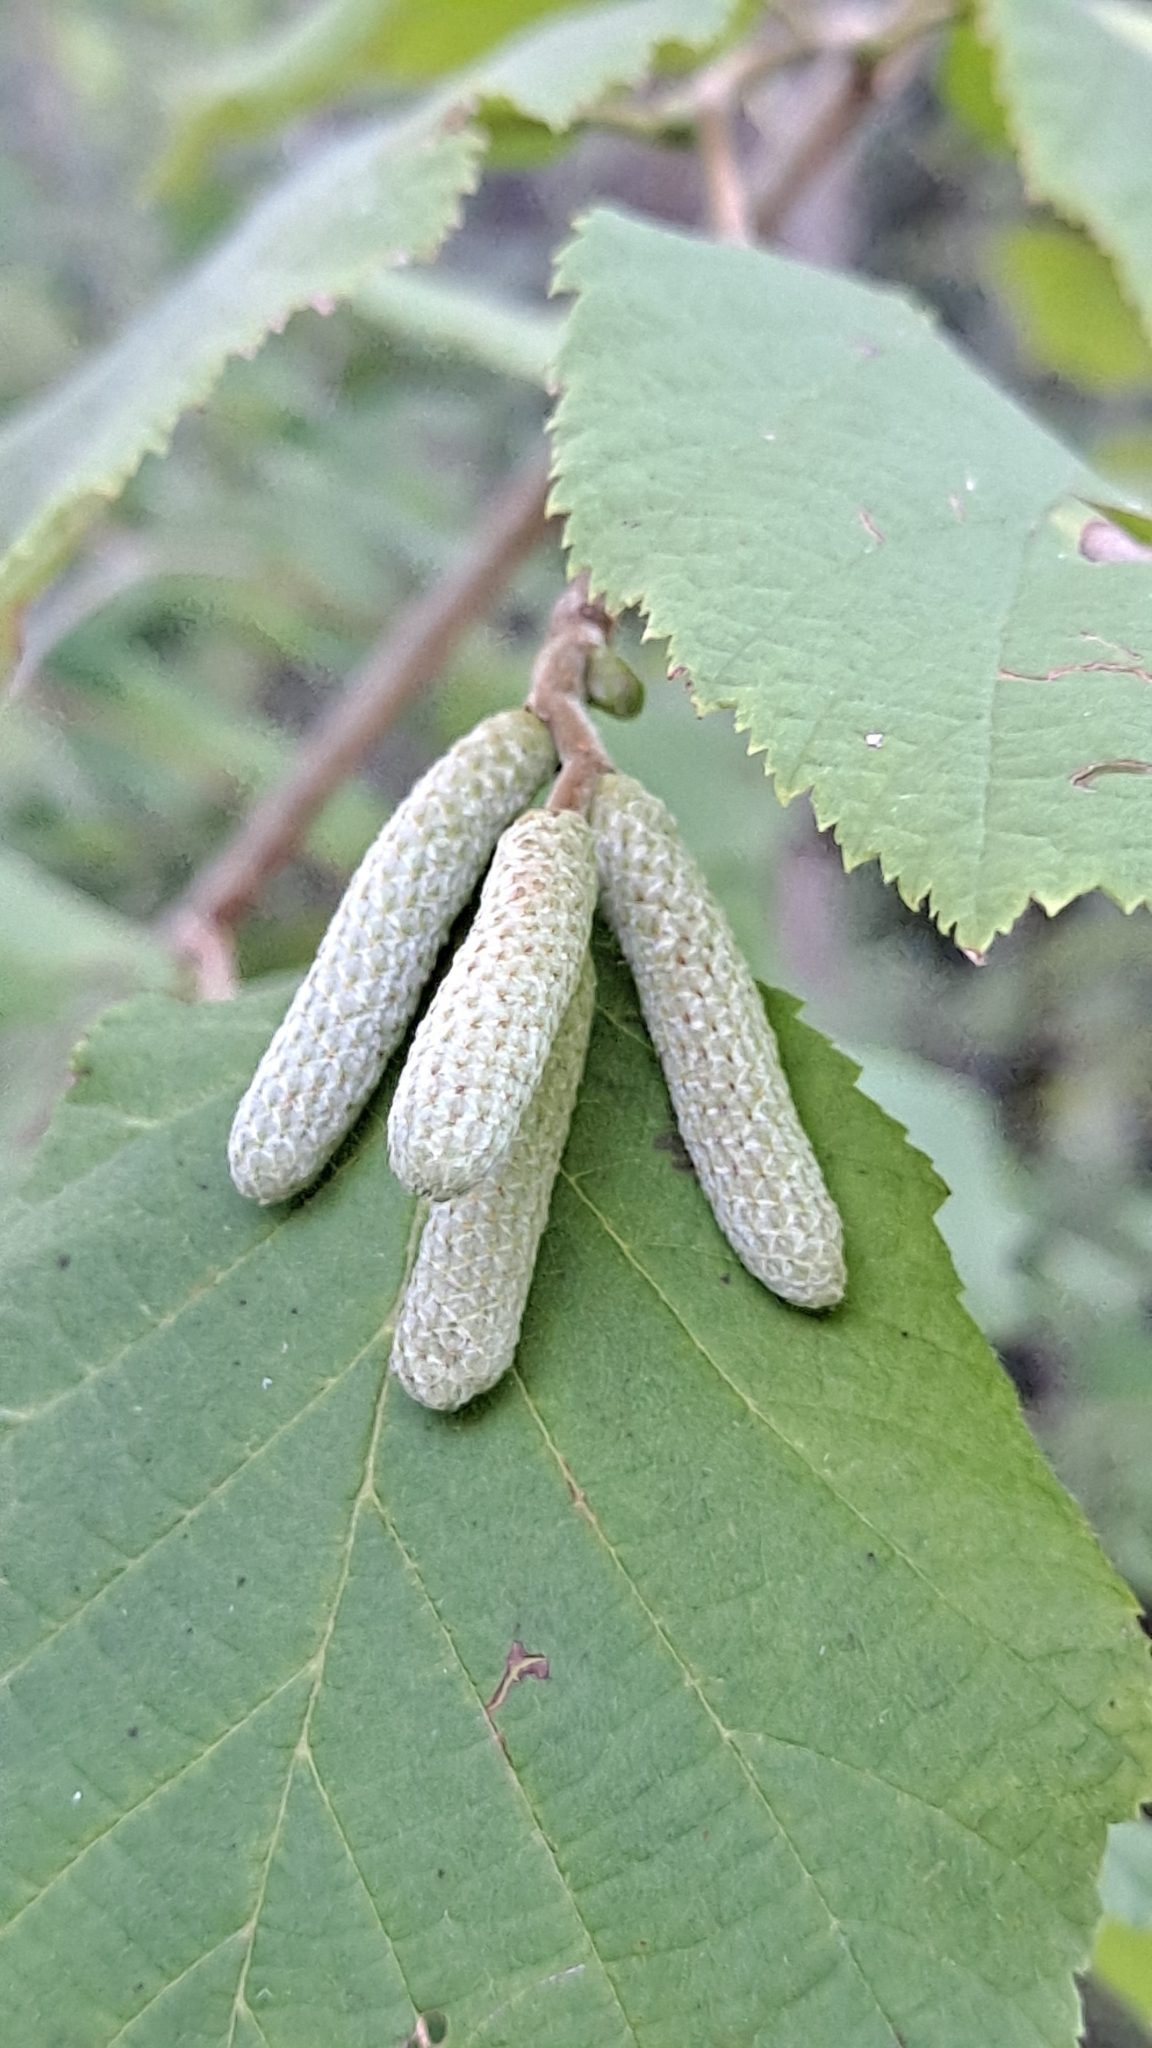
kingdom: Plantae
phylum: Tracheophyta
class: Magnoliopsida
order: Fagales
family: Betulaceae
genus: Corylus
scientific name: Corylus avellana
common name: European hazel
